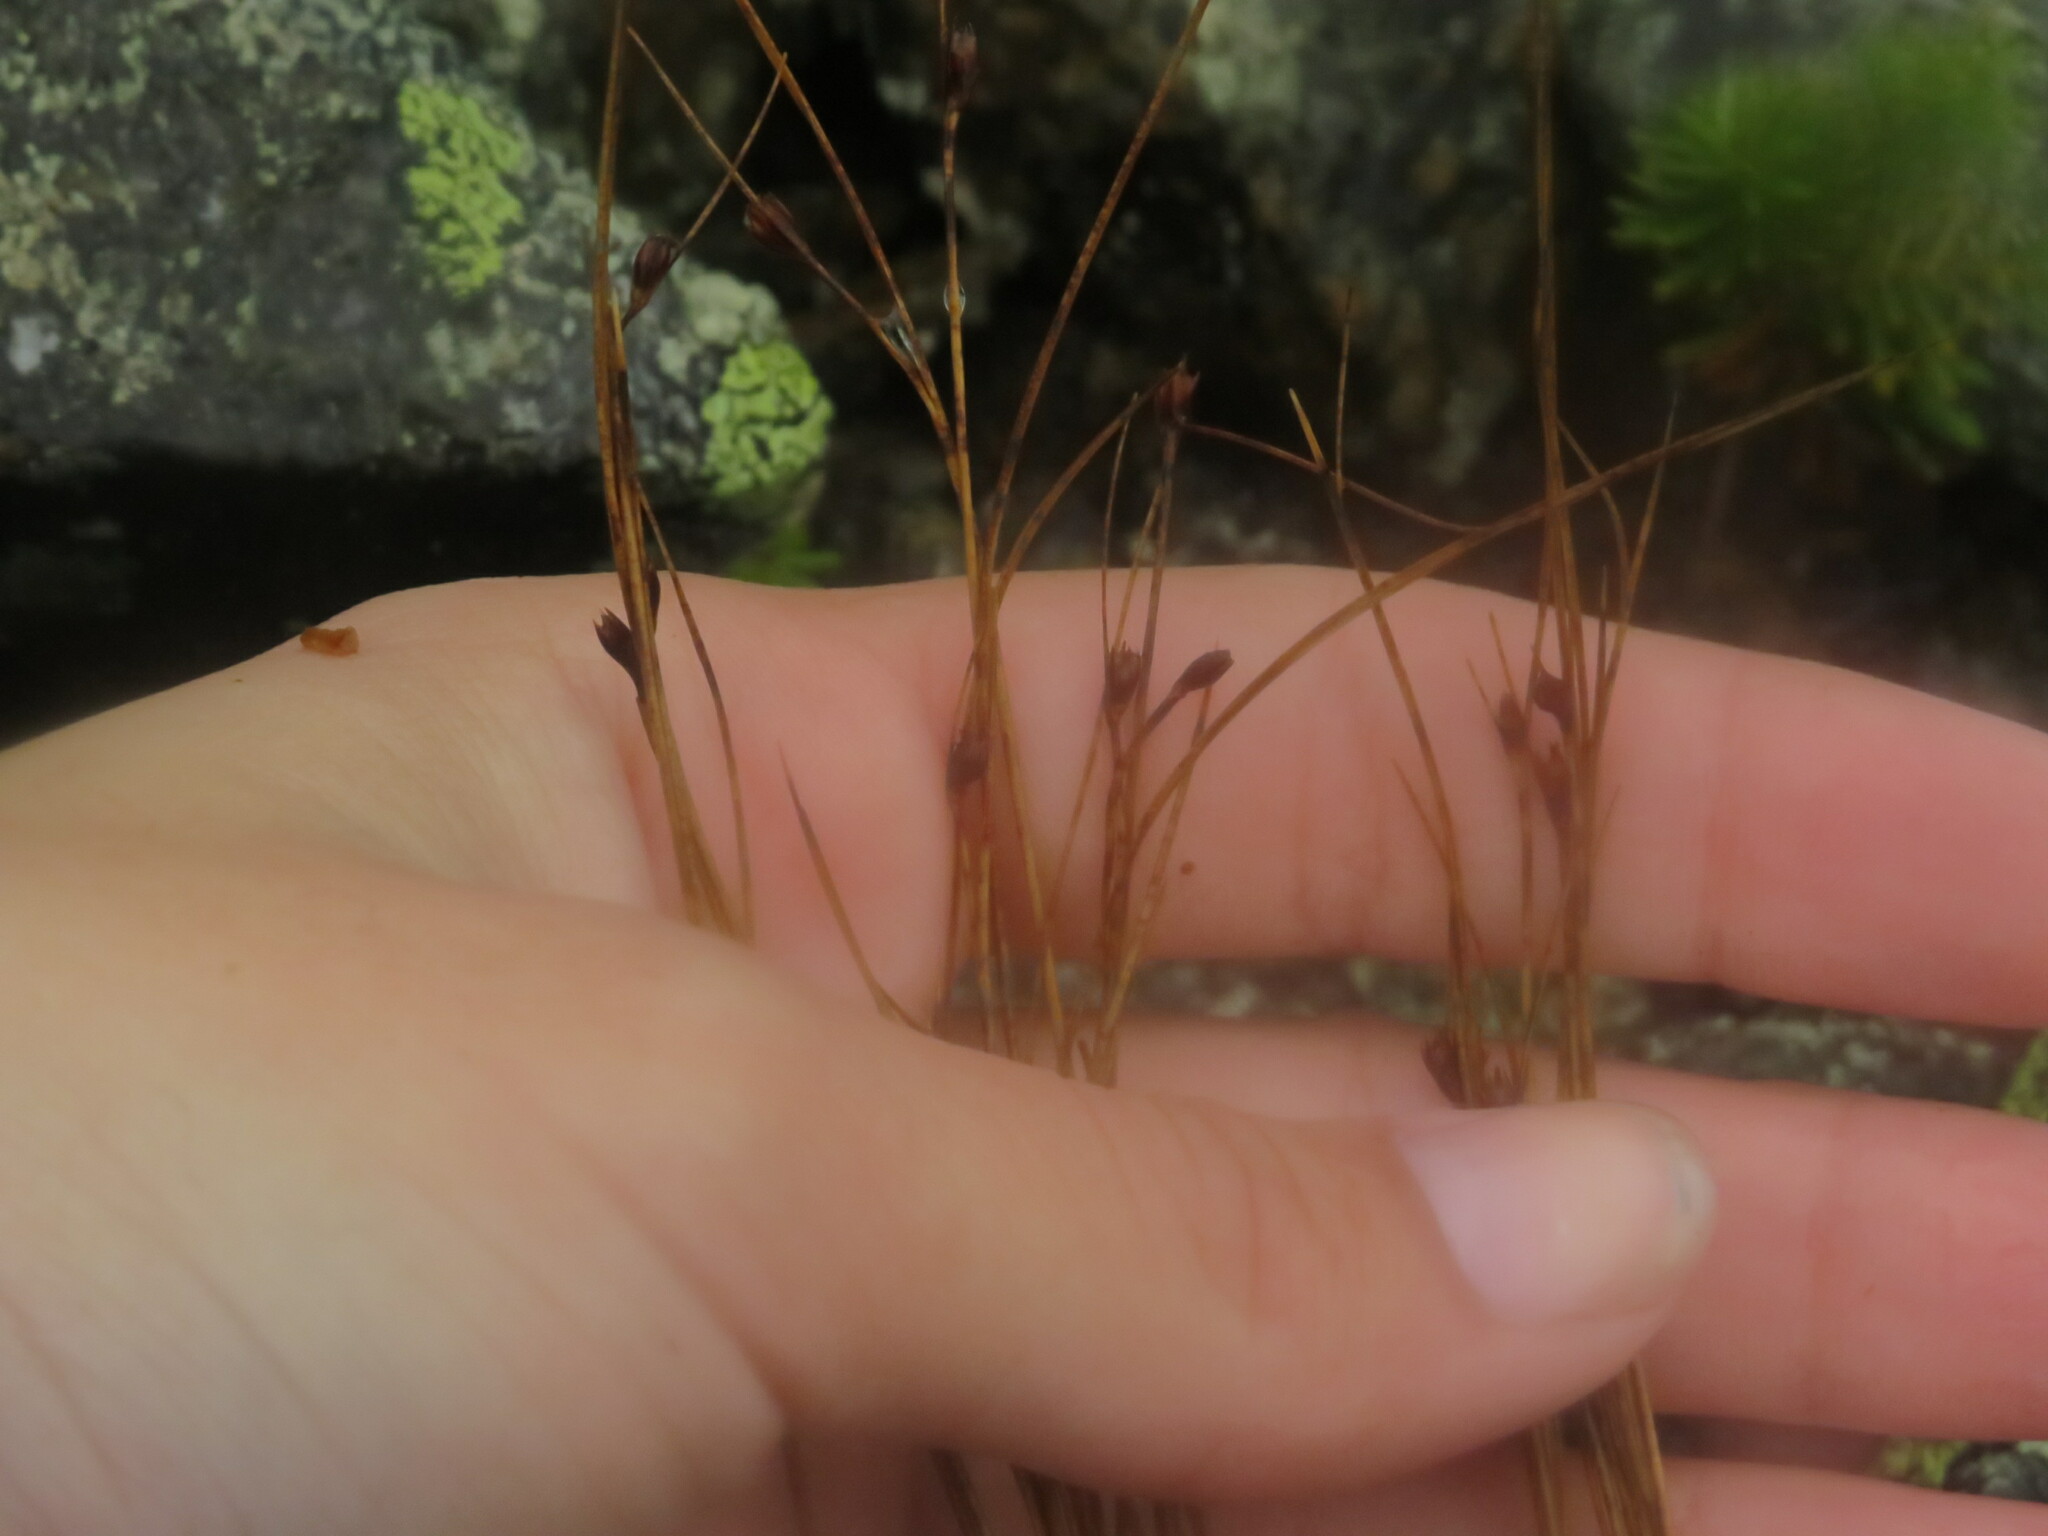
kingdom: Plantae
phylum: Tracheophyta
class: Liliopsida
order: Poales
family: Juncaceae
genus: Oreojuncus
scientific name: Oreojuncus trifidus
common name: Highland rush
